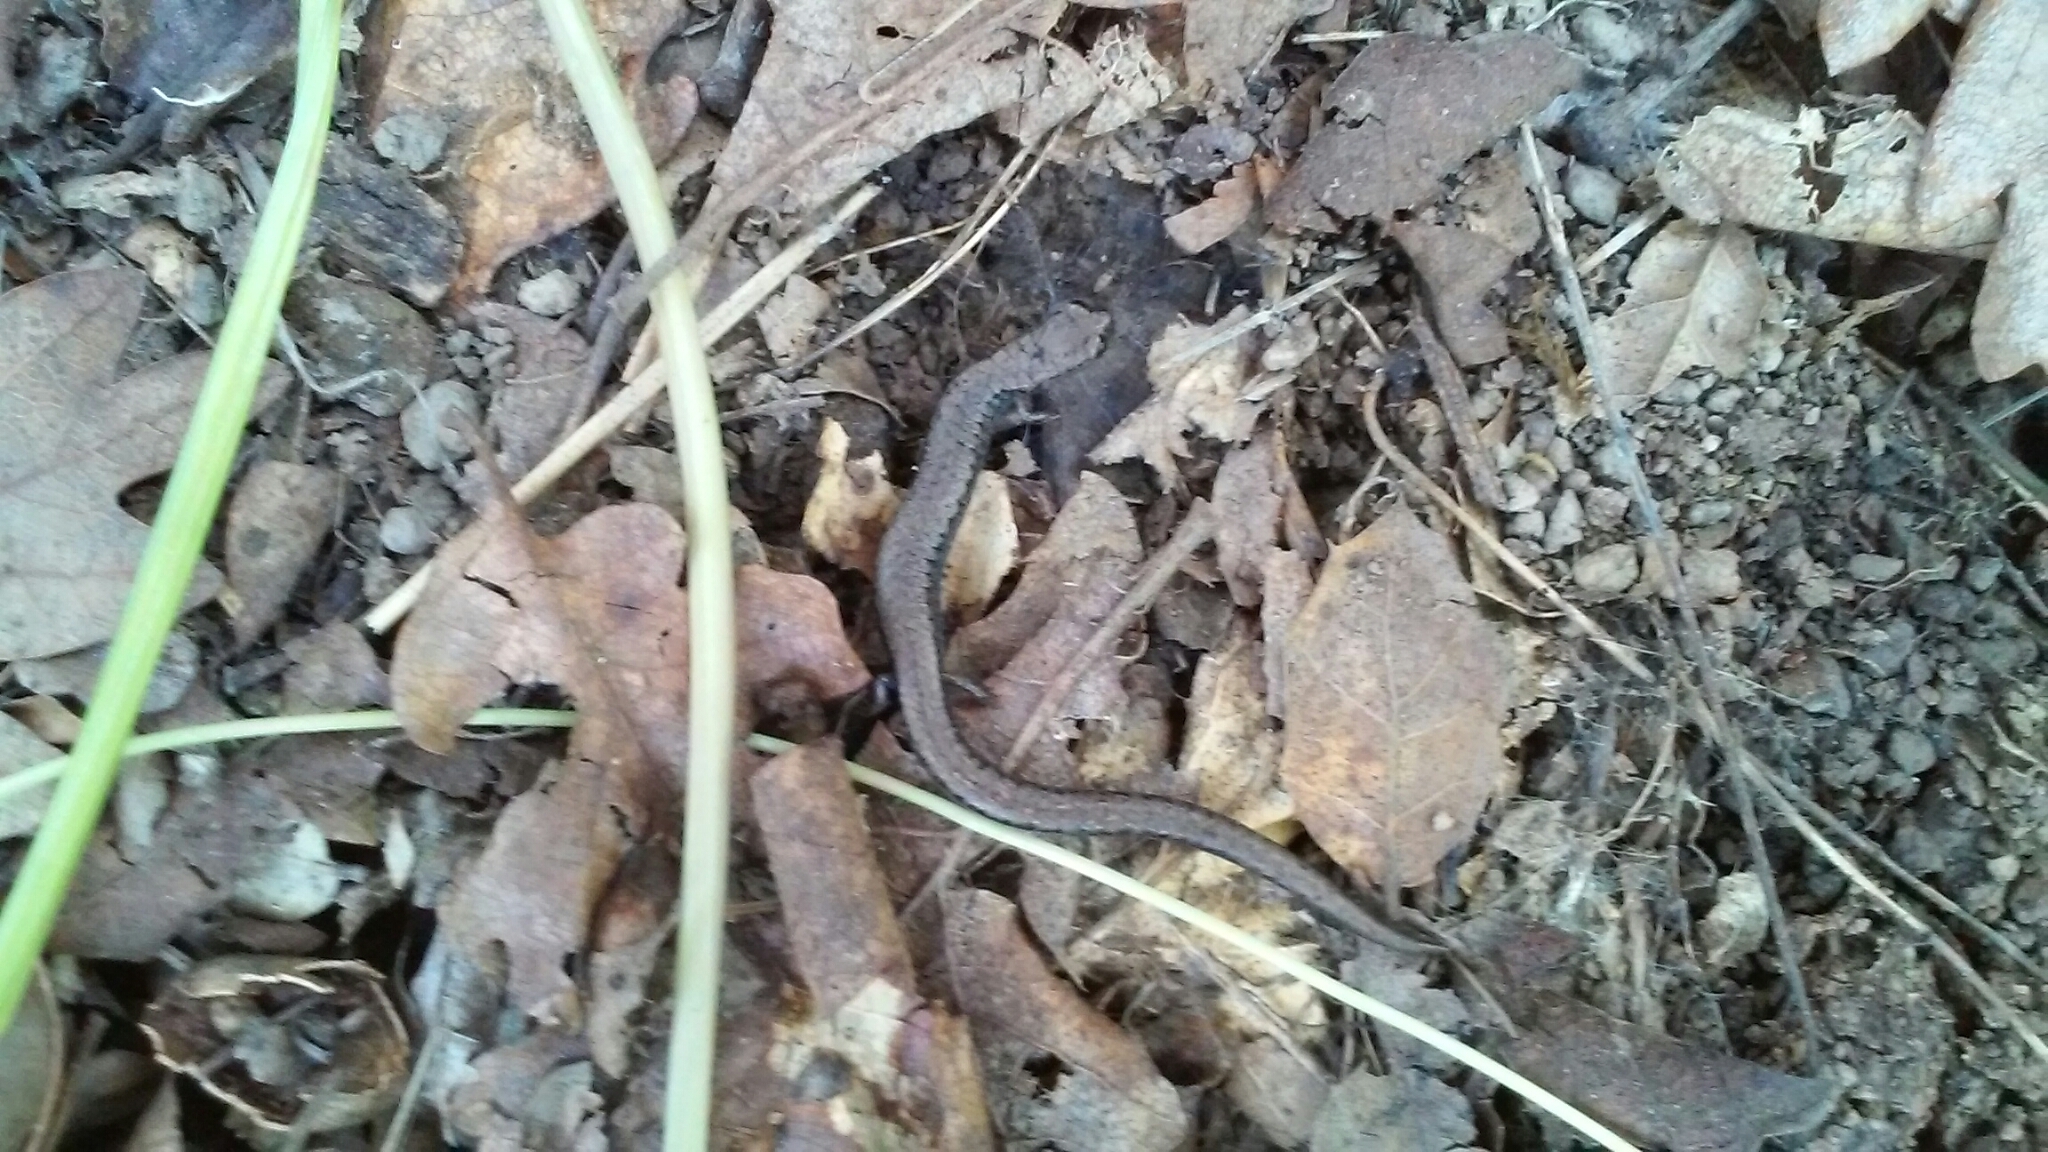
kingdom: Animalia
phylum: Chordata
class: Amphibia
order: Caudata
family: Plethodontidae
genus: Batrachoseps
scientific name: Batrachoseps attenuatus
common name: California slender salamander
